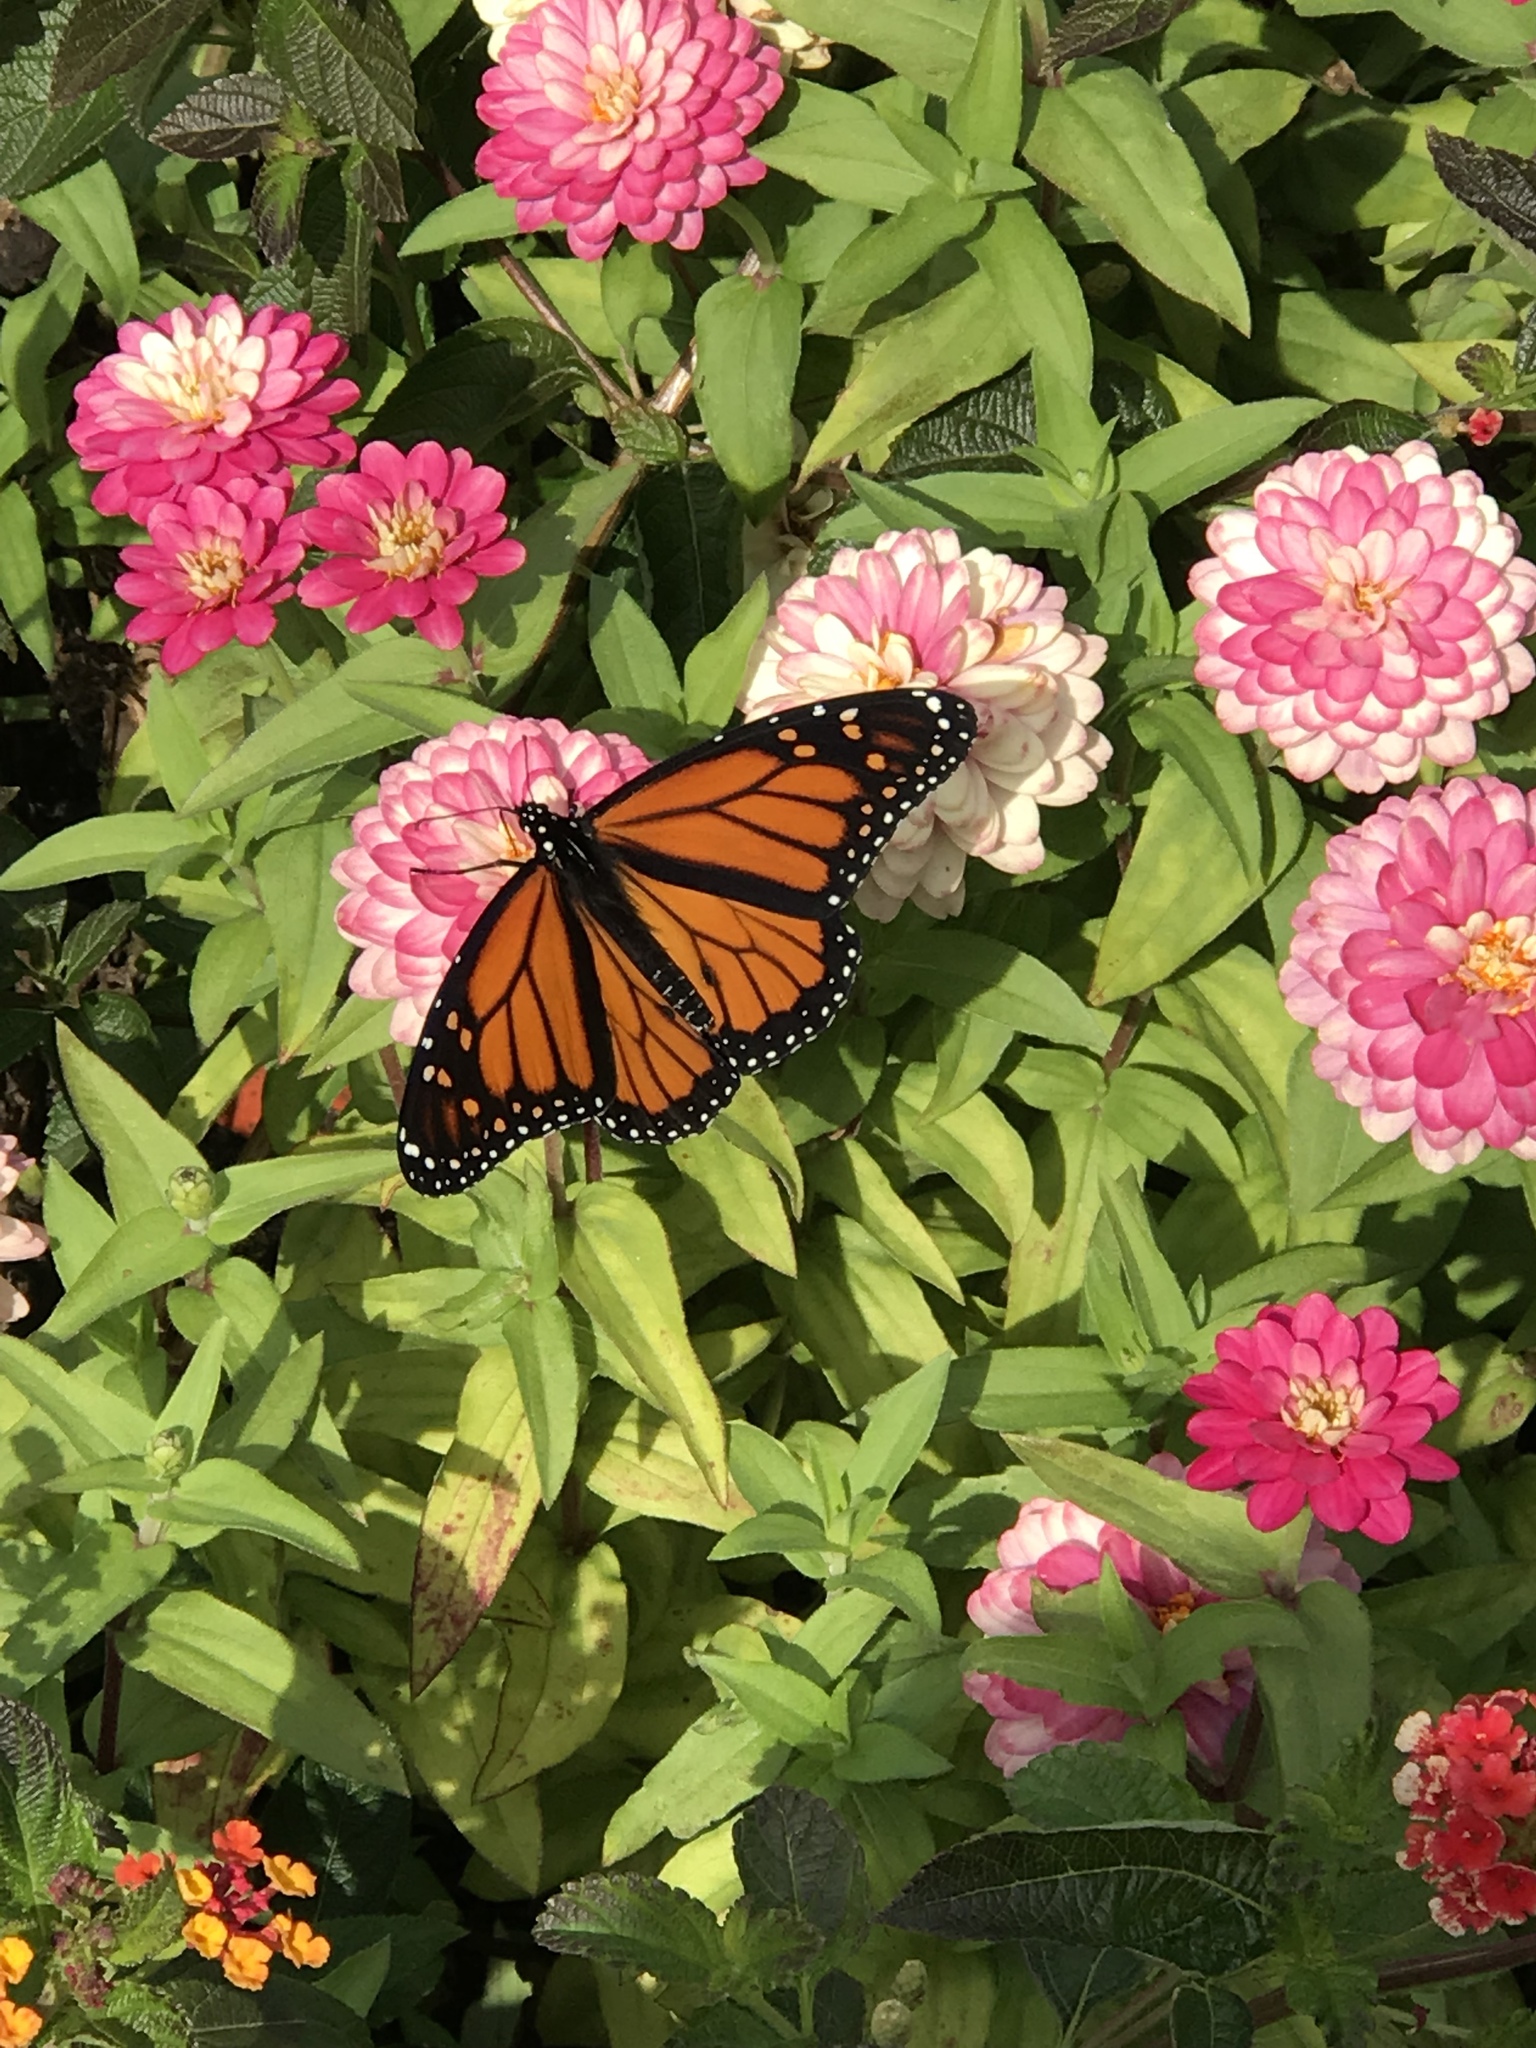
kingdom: Animalia
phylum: Arthropoda
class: Insecta
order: Lepidoptera
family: Nymphalidae
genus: Danaus
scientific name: Danaus plexippus
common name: Monarch
